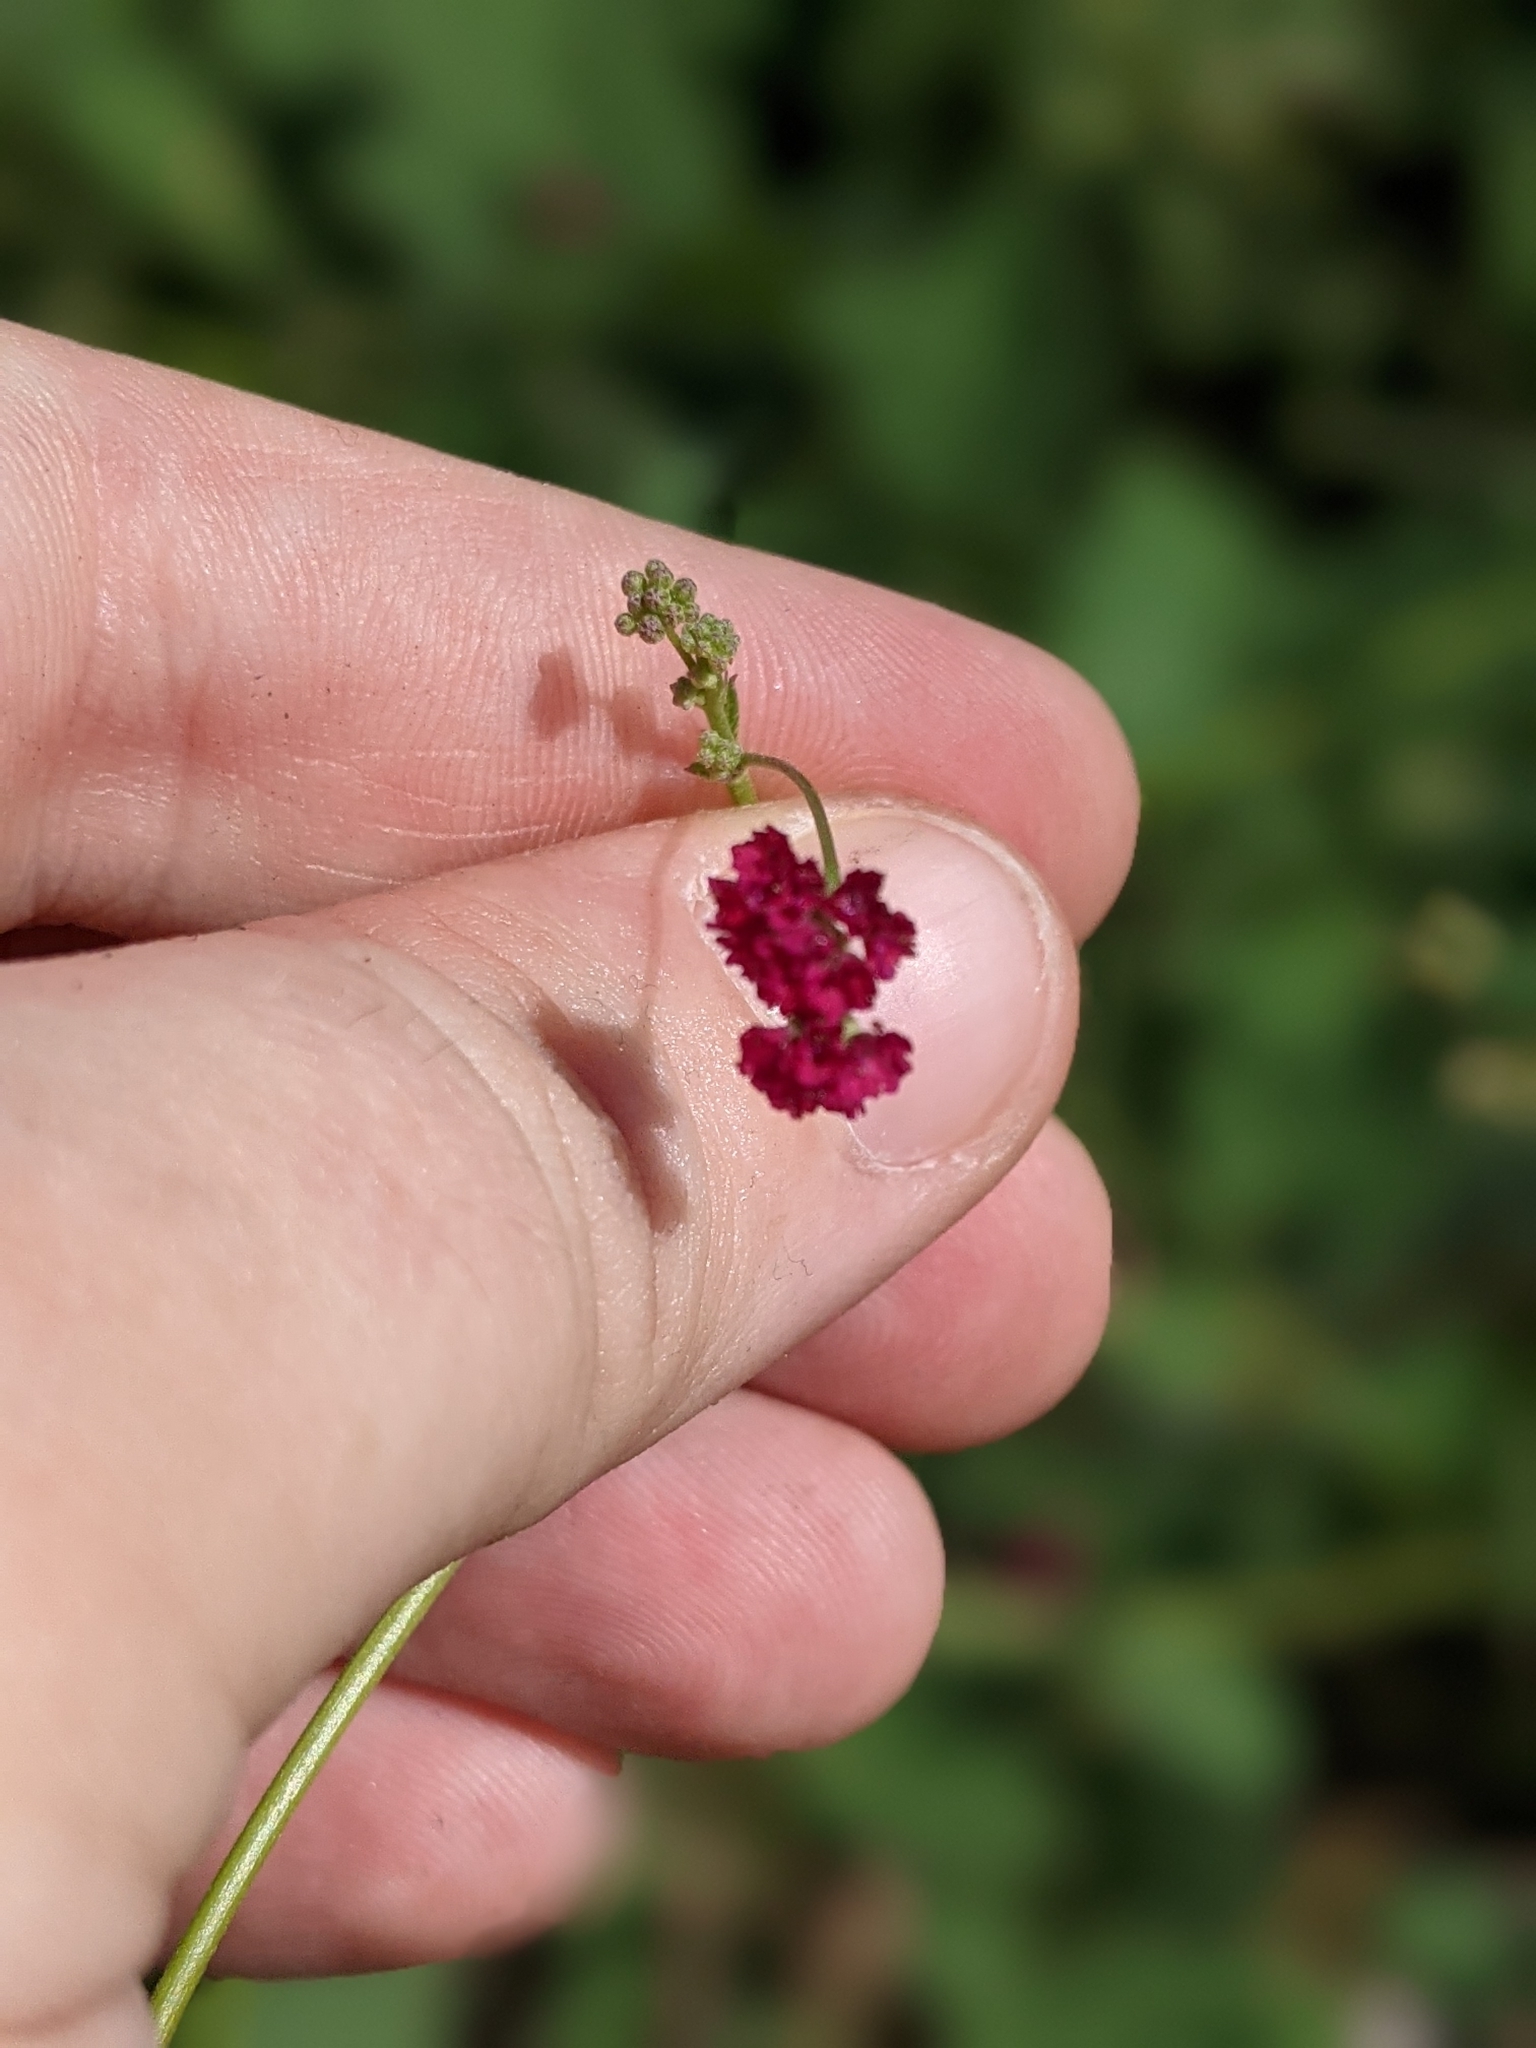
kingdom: Plantae
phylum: Tracheophyta
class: Magnoliopsida
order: Caryophyllales
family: Nyctaginaceae
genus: Boerhavia
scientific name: Boerhavia coccinea
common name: Scarlet spiderling
